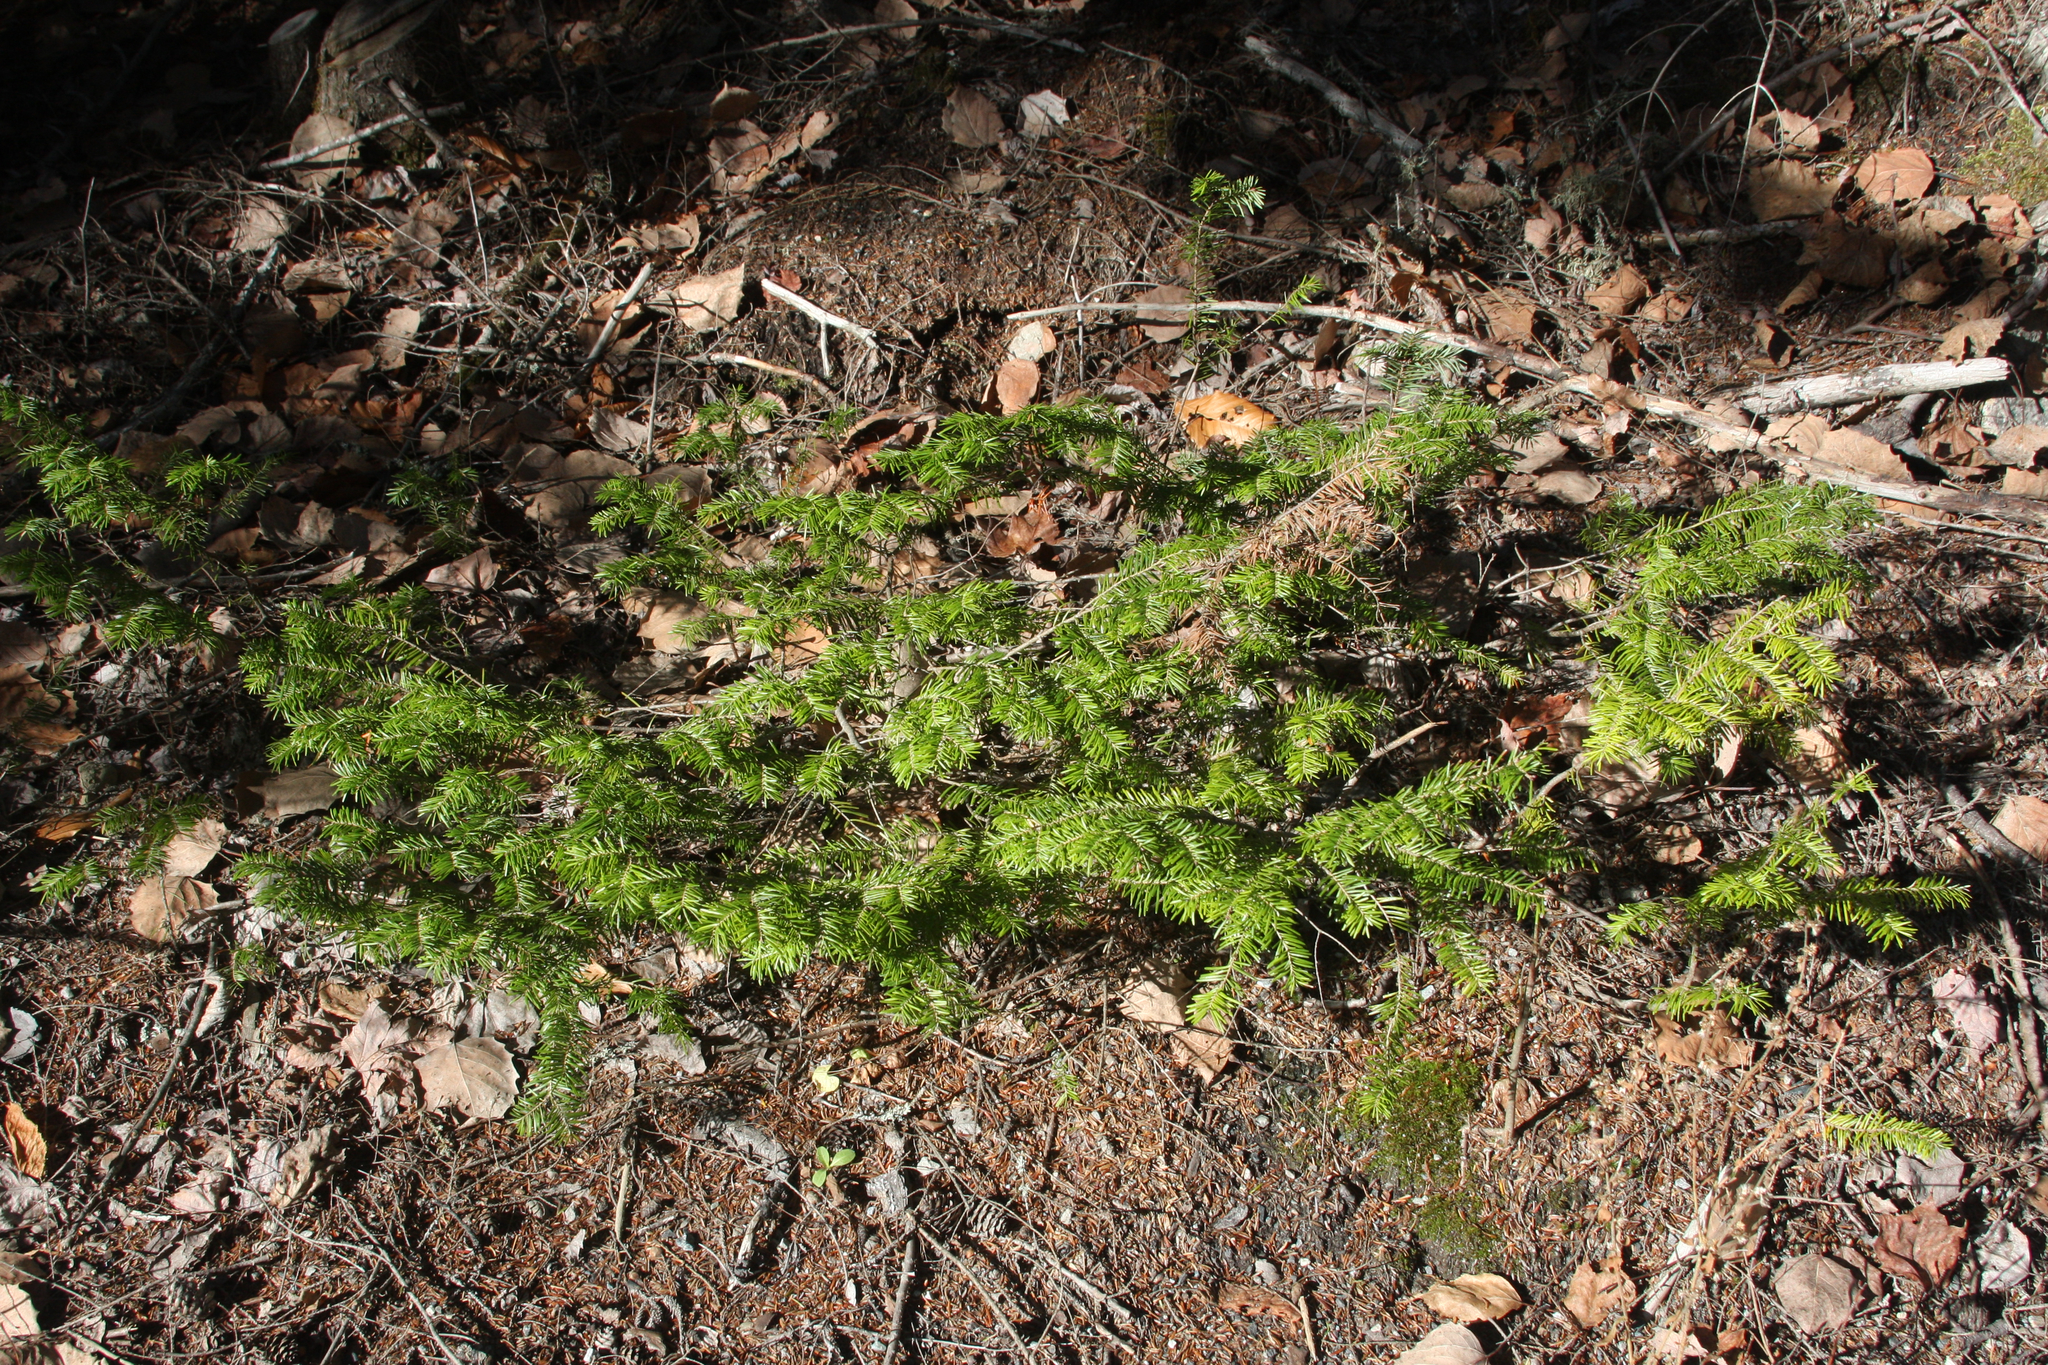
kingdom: Plantae
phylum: Tracheophyta
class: Pinopsida
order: Pinales
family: Pinaceae
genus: Abies
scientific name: Abies balsamea
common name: Balsam fir
